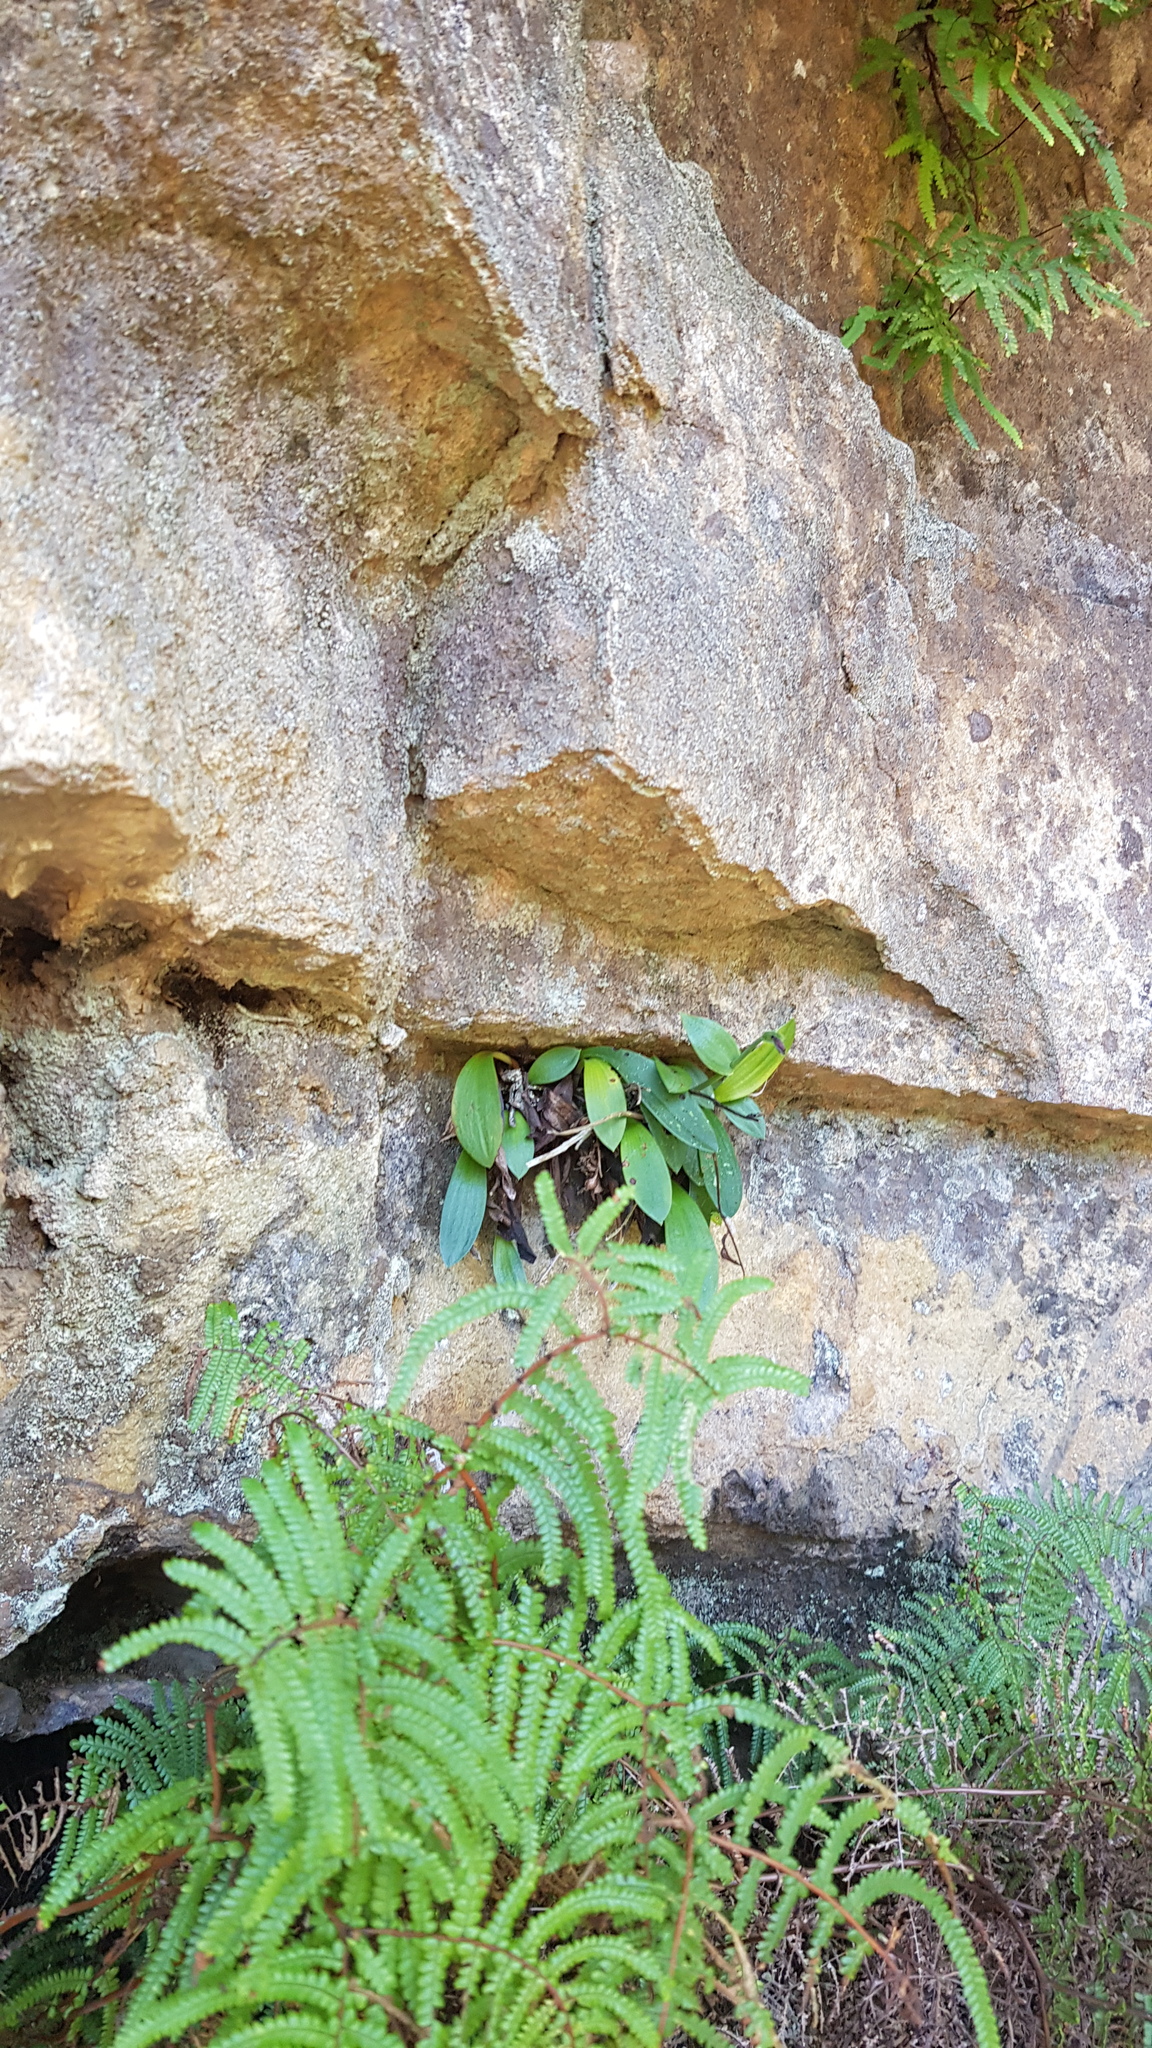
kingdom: Plantae
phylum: Tracheophyta
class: Liliopsida
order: Asparagales
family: Orchidaceae
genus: Rimacola
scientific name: Rimacola elliptica
